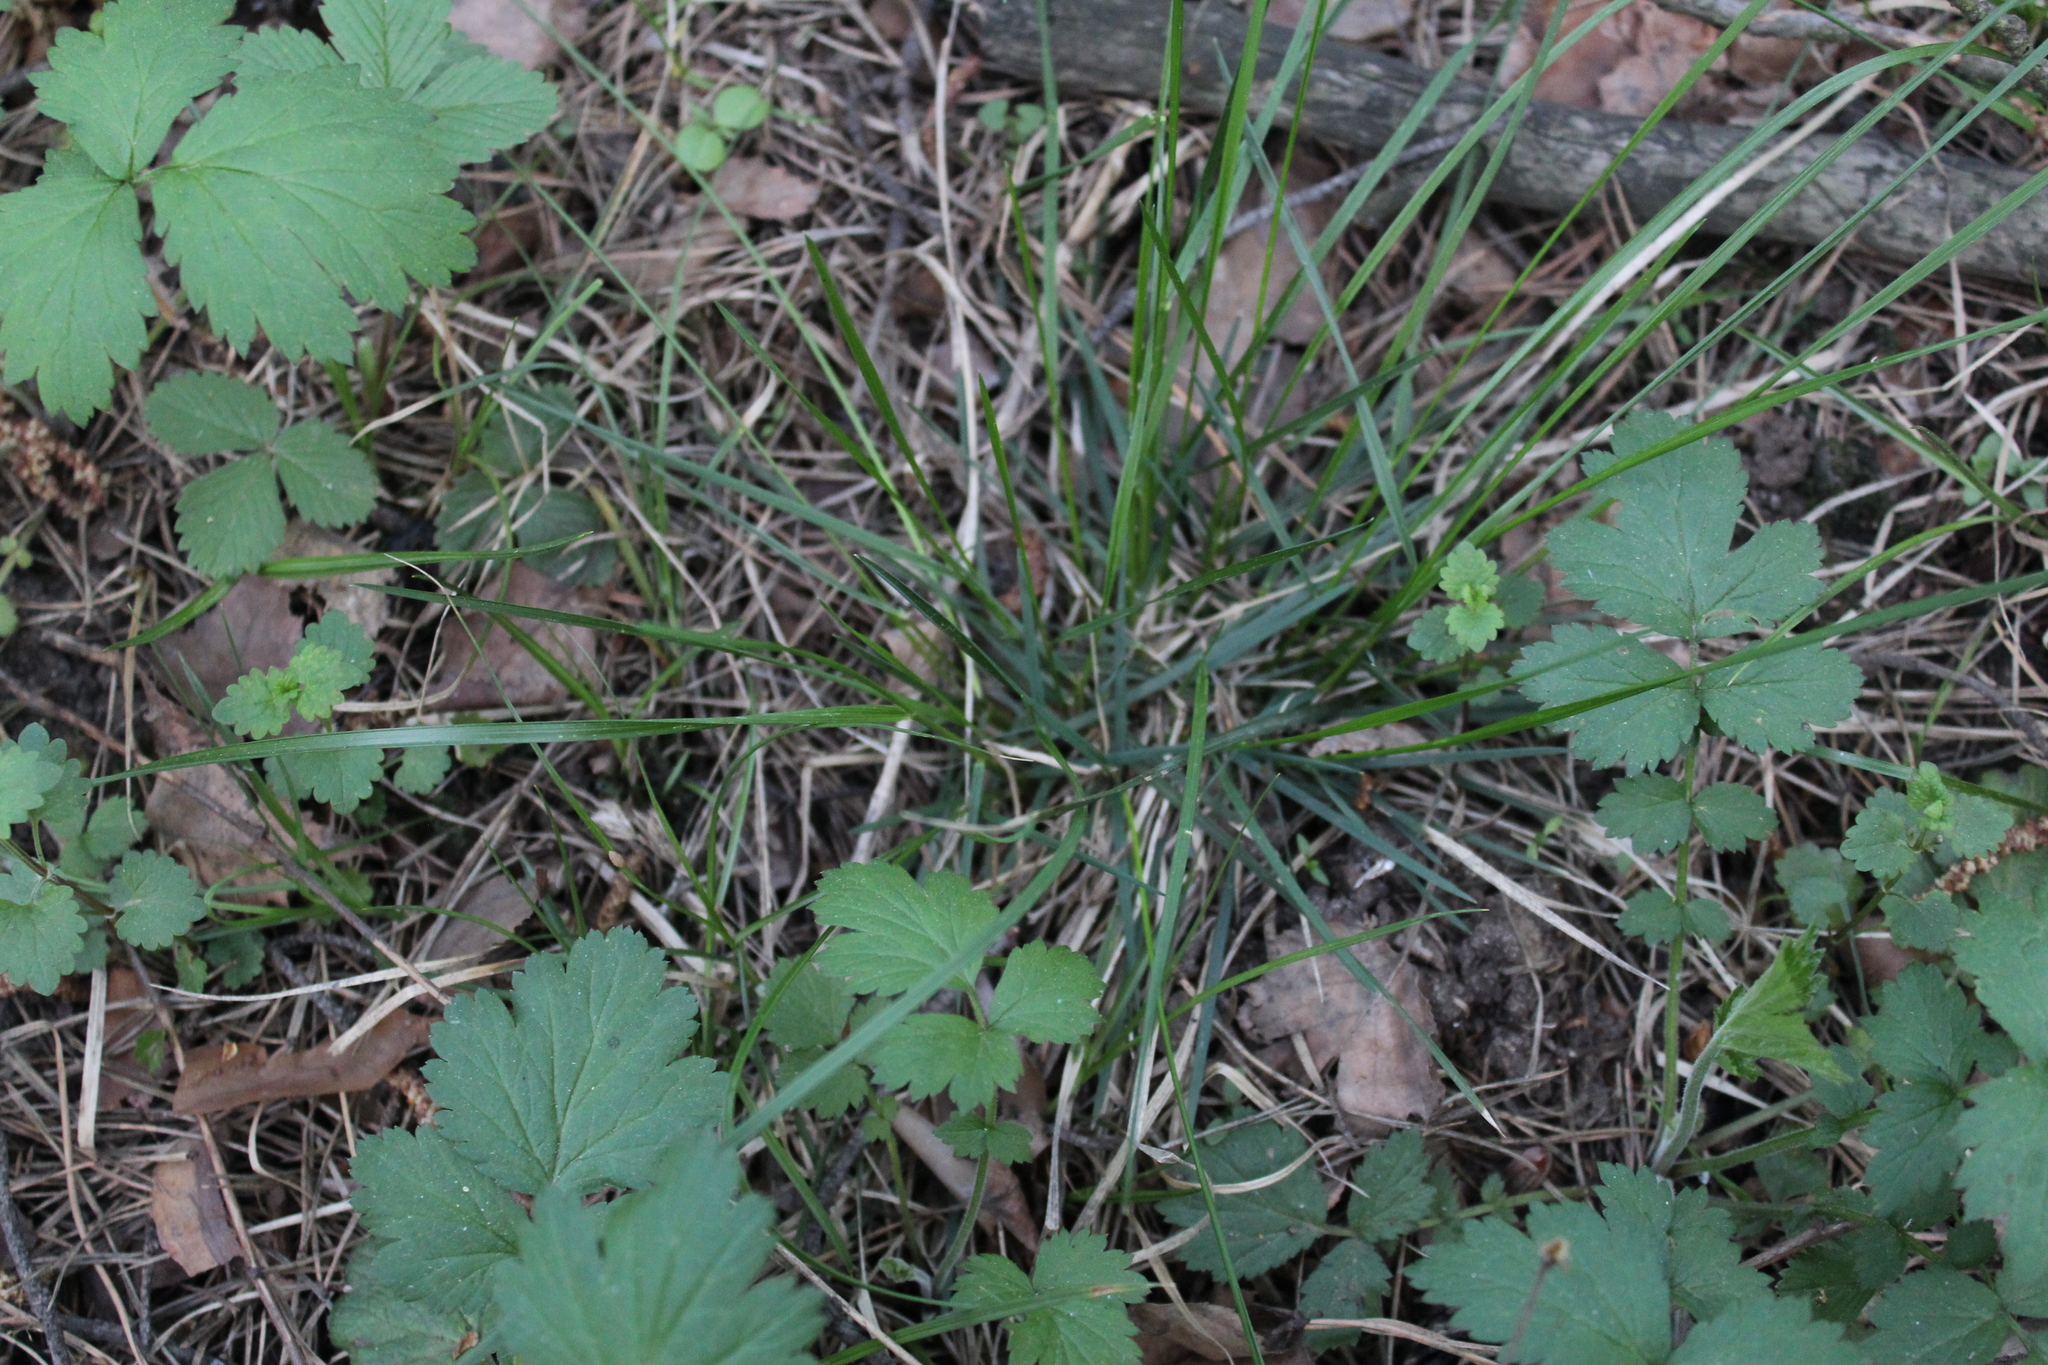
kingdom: Plantae
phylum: Tracheophyta
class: Liliopsida
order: Poales
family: Poaceae
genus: Deschampsia
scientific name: Deschampsia cespitosa
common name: Tufted hair-grass
